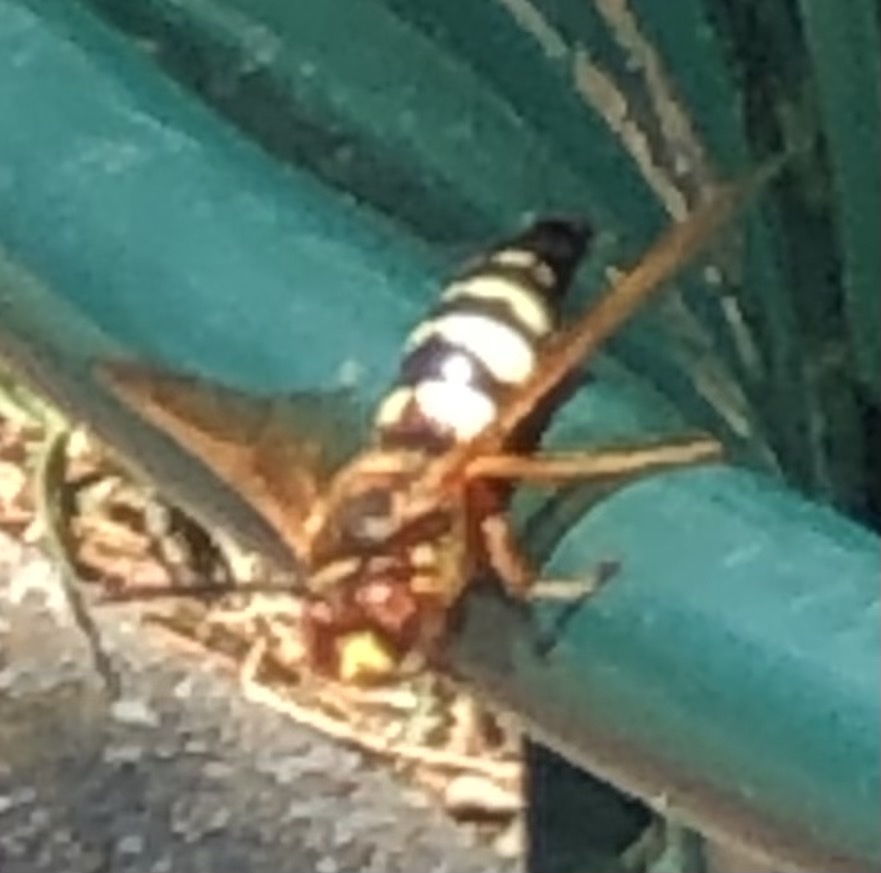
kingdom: Animalia
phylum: Arthropoda
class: Insecta
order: Hymenoptera
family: Crabronidae
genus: Sphecius
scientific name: Sphecius speciosus
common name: Cicada killer
